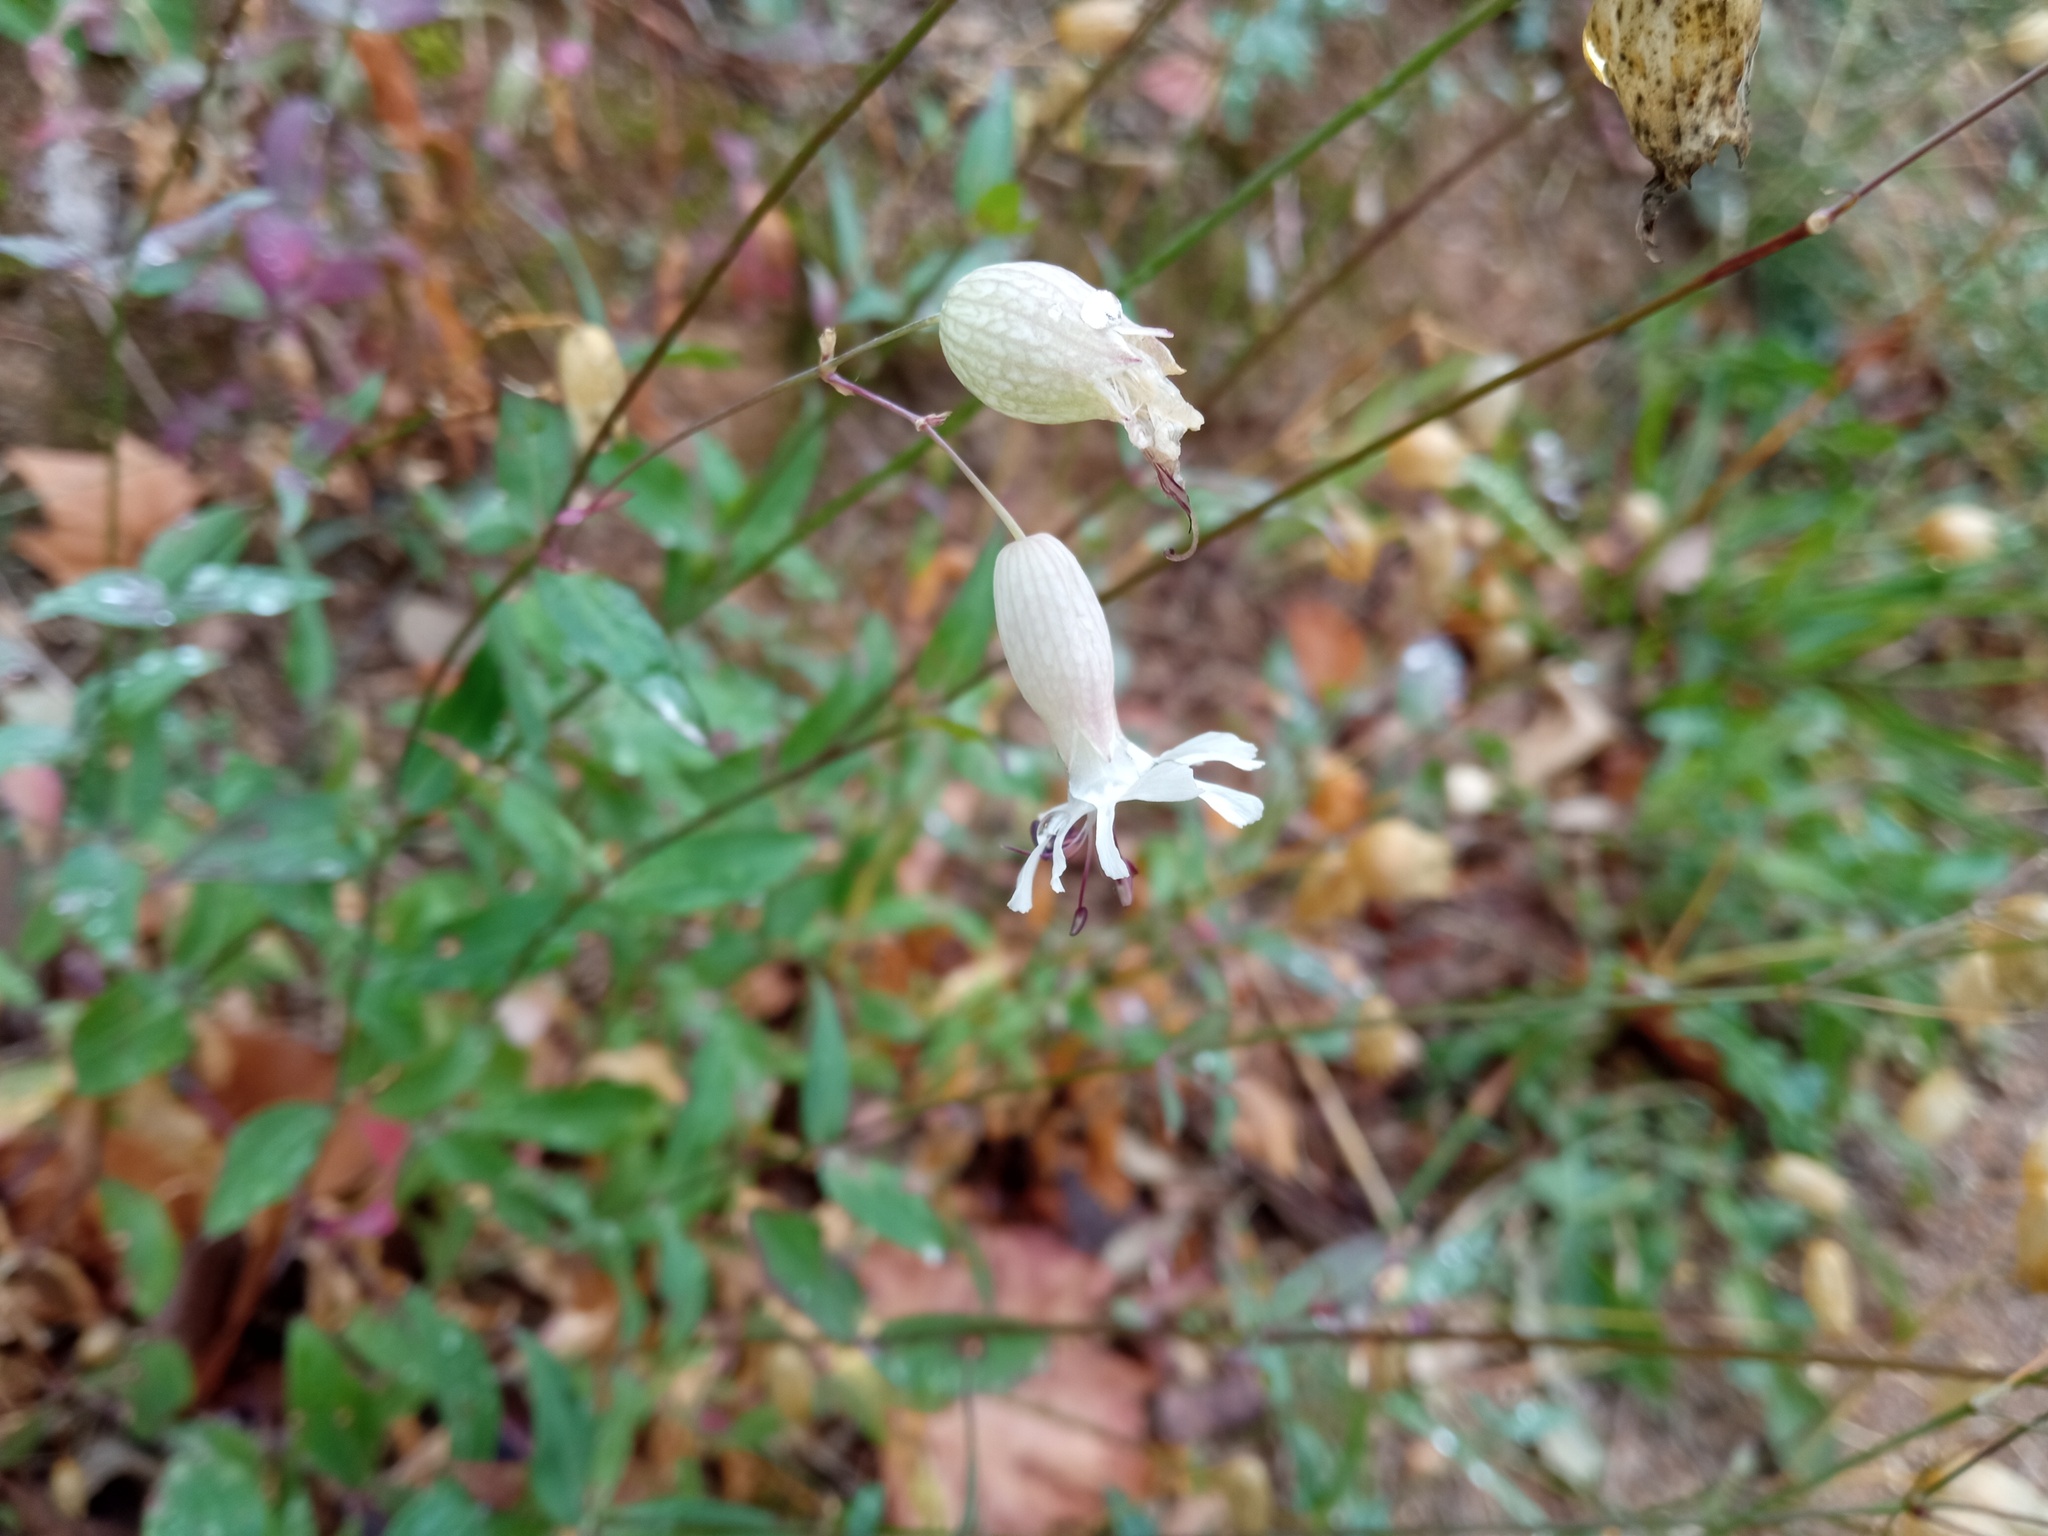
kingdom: Plantae
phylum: Tracheophyta
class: Magnoliopsida
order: Caryophyllales
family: Caryophyllaceae
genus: Silene
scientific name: Silene vulgaris
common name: Bladder campion
